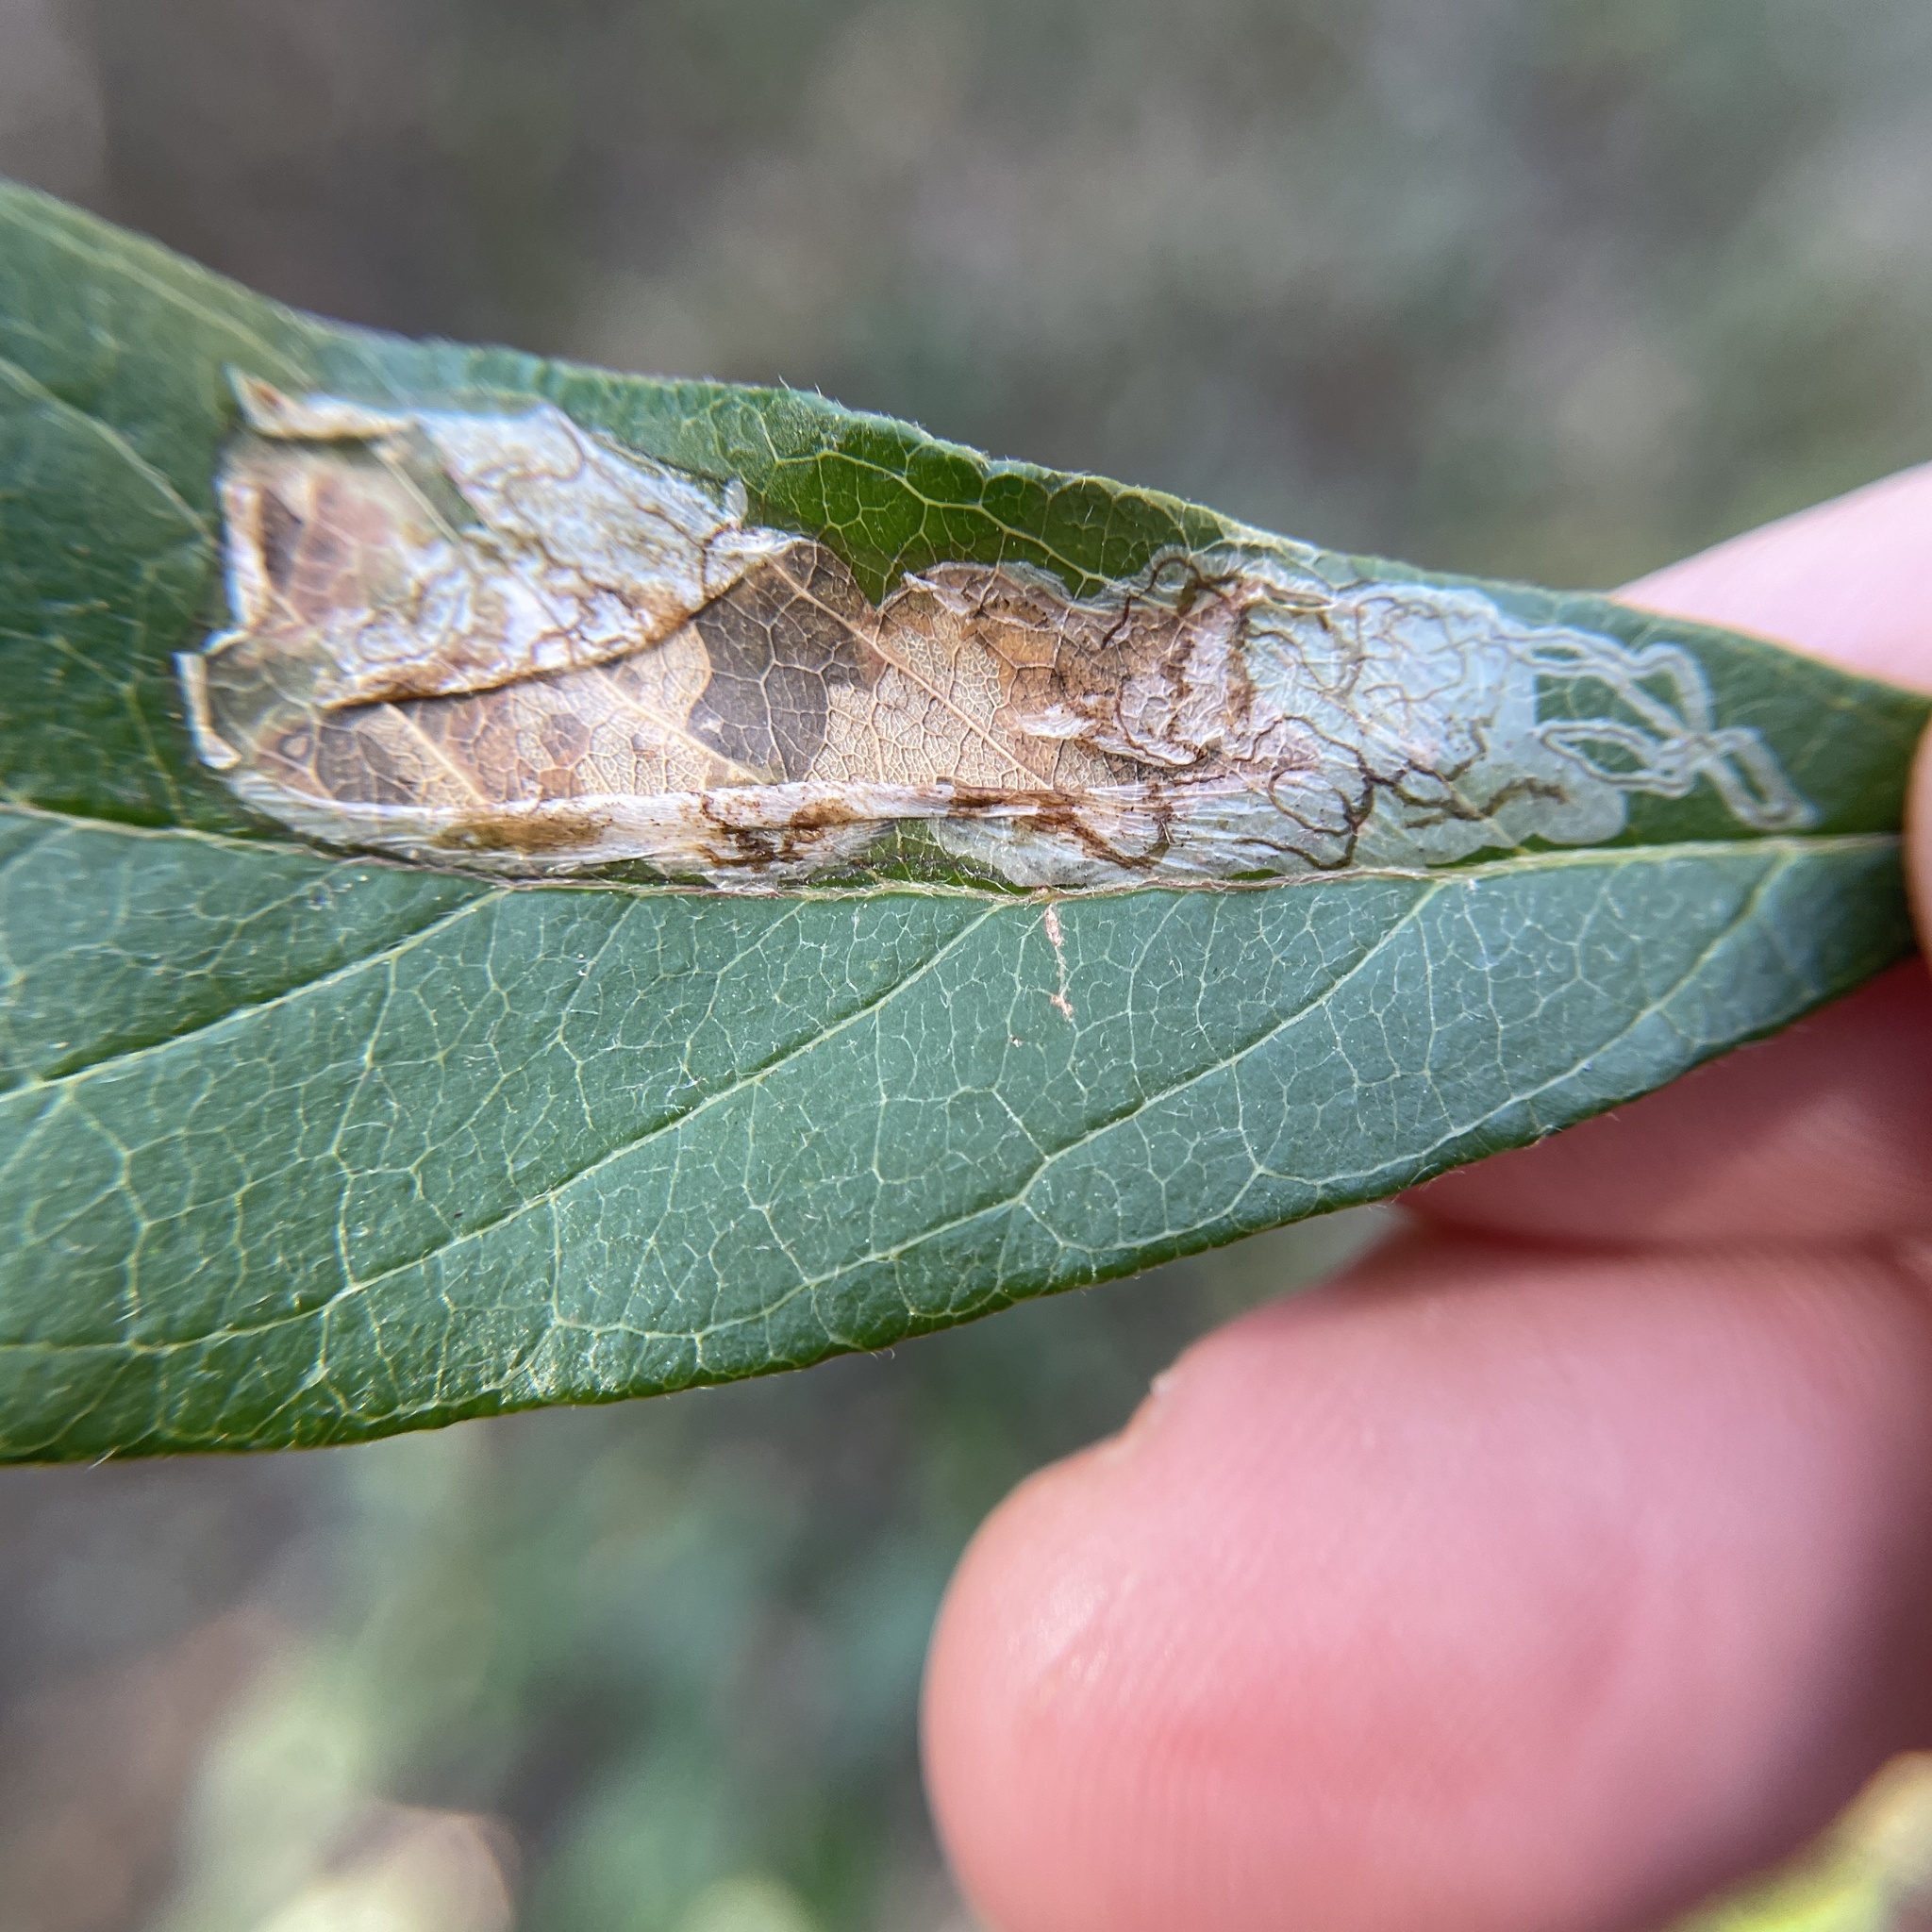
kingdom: Animalia
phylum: Arthropoda
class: Insecta
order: Lepidoptera
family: Gracillariidae
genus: Parectopa
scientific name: Parectopa bumeliella
